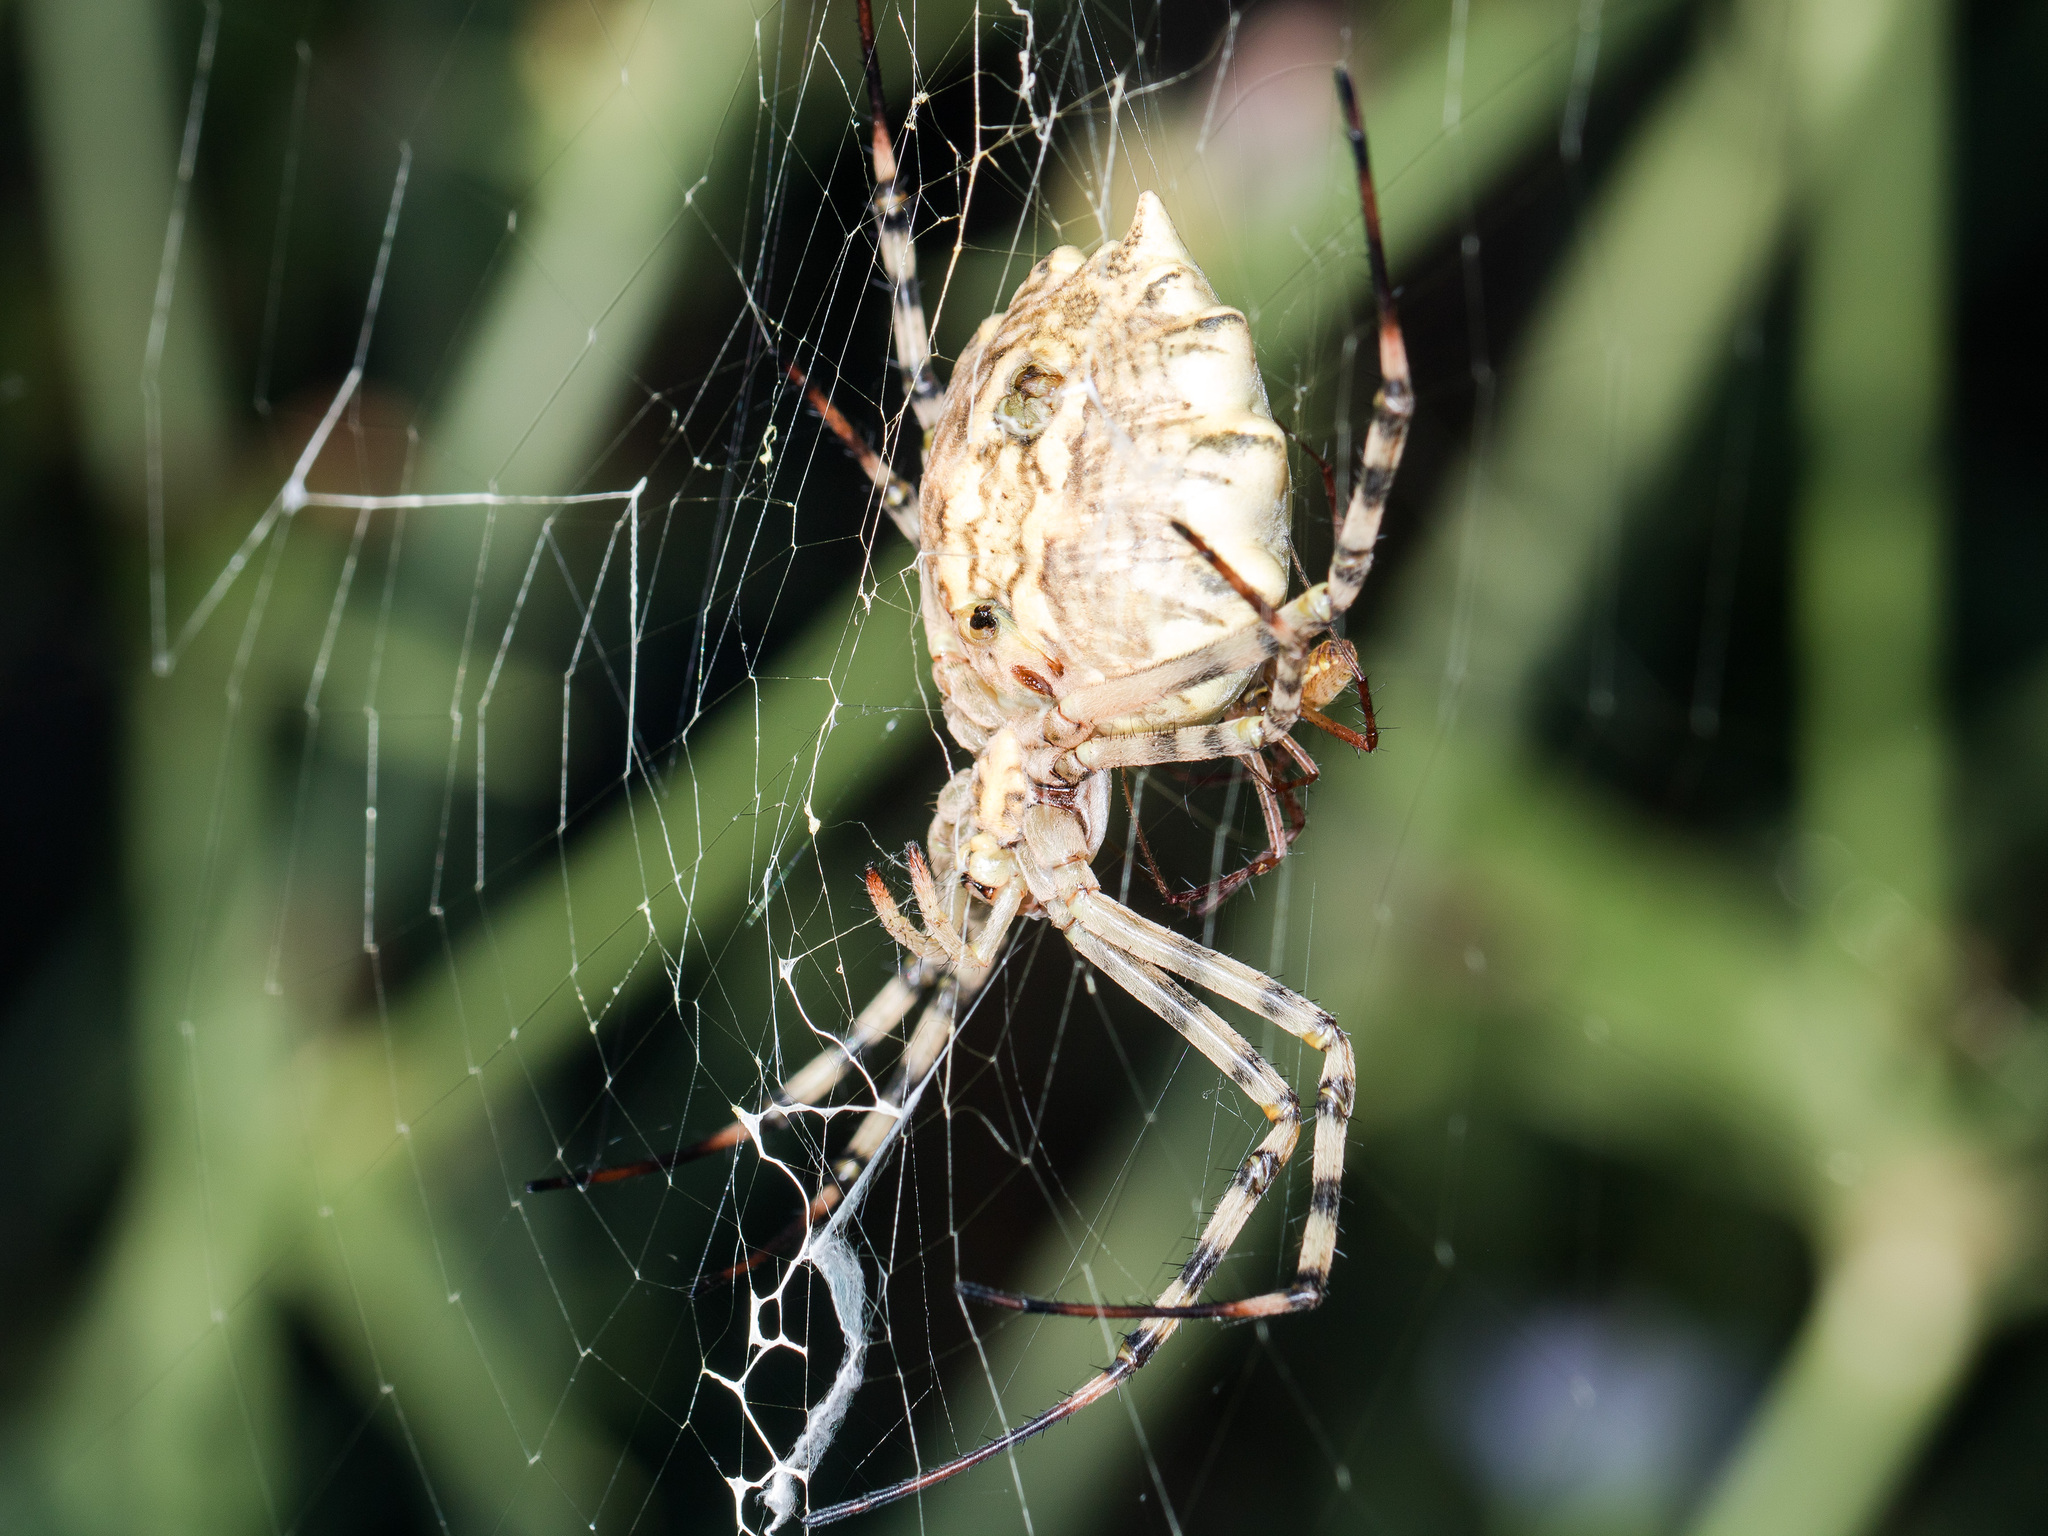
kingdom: Animalia
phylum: Arthropoda
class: Arachnida
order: Araneae
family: Araneidae
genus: Argiope
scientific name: Argiope lobata
